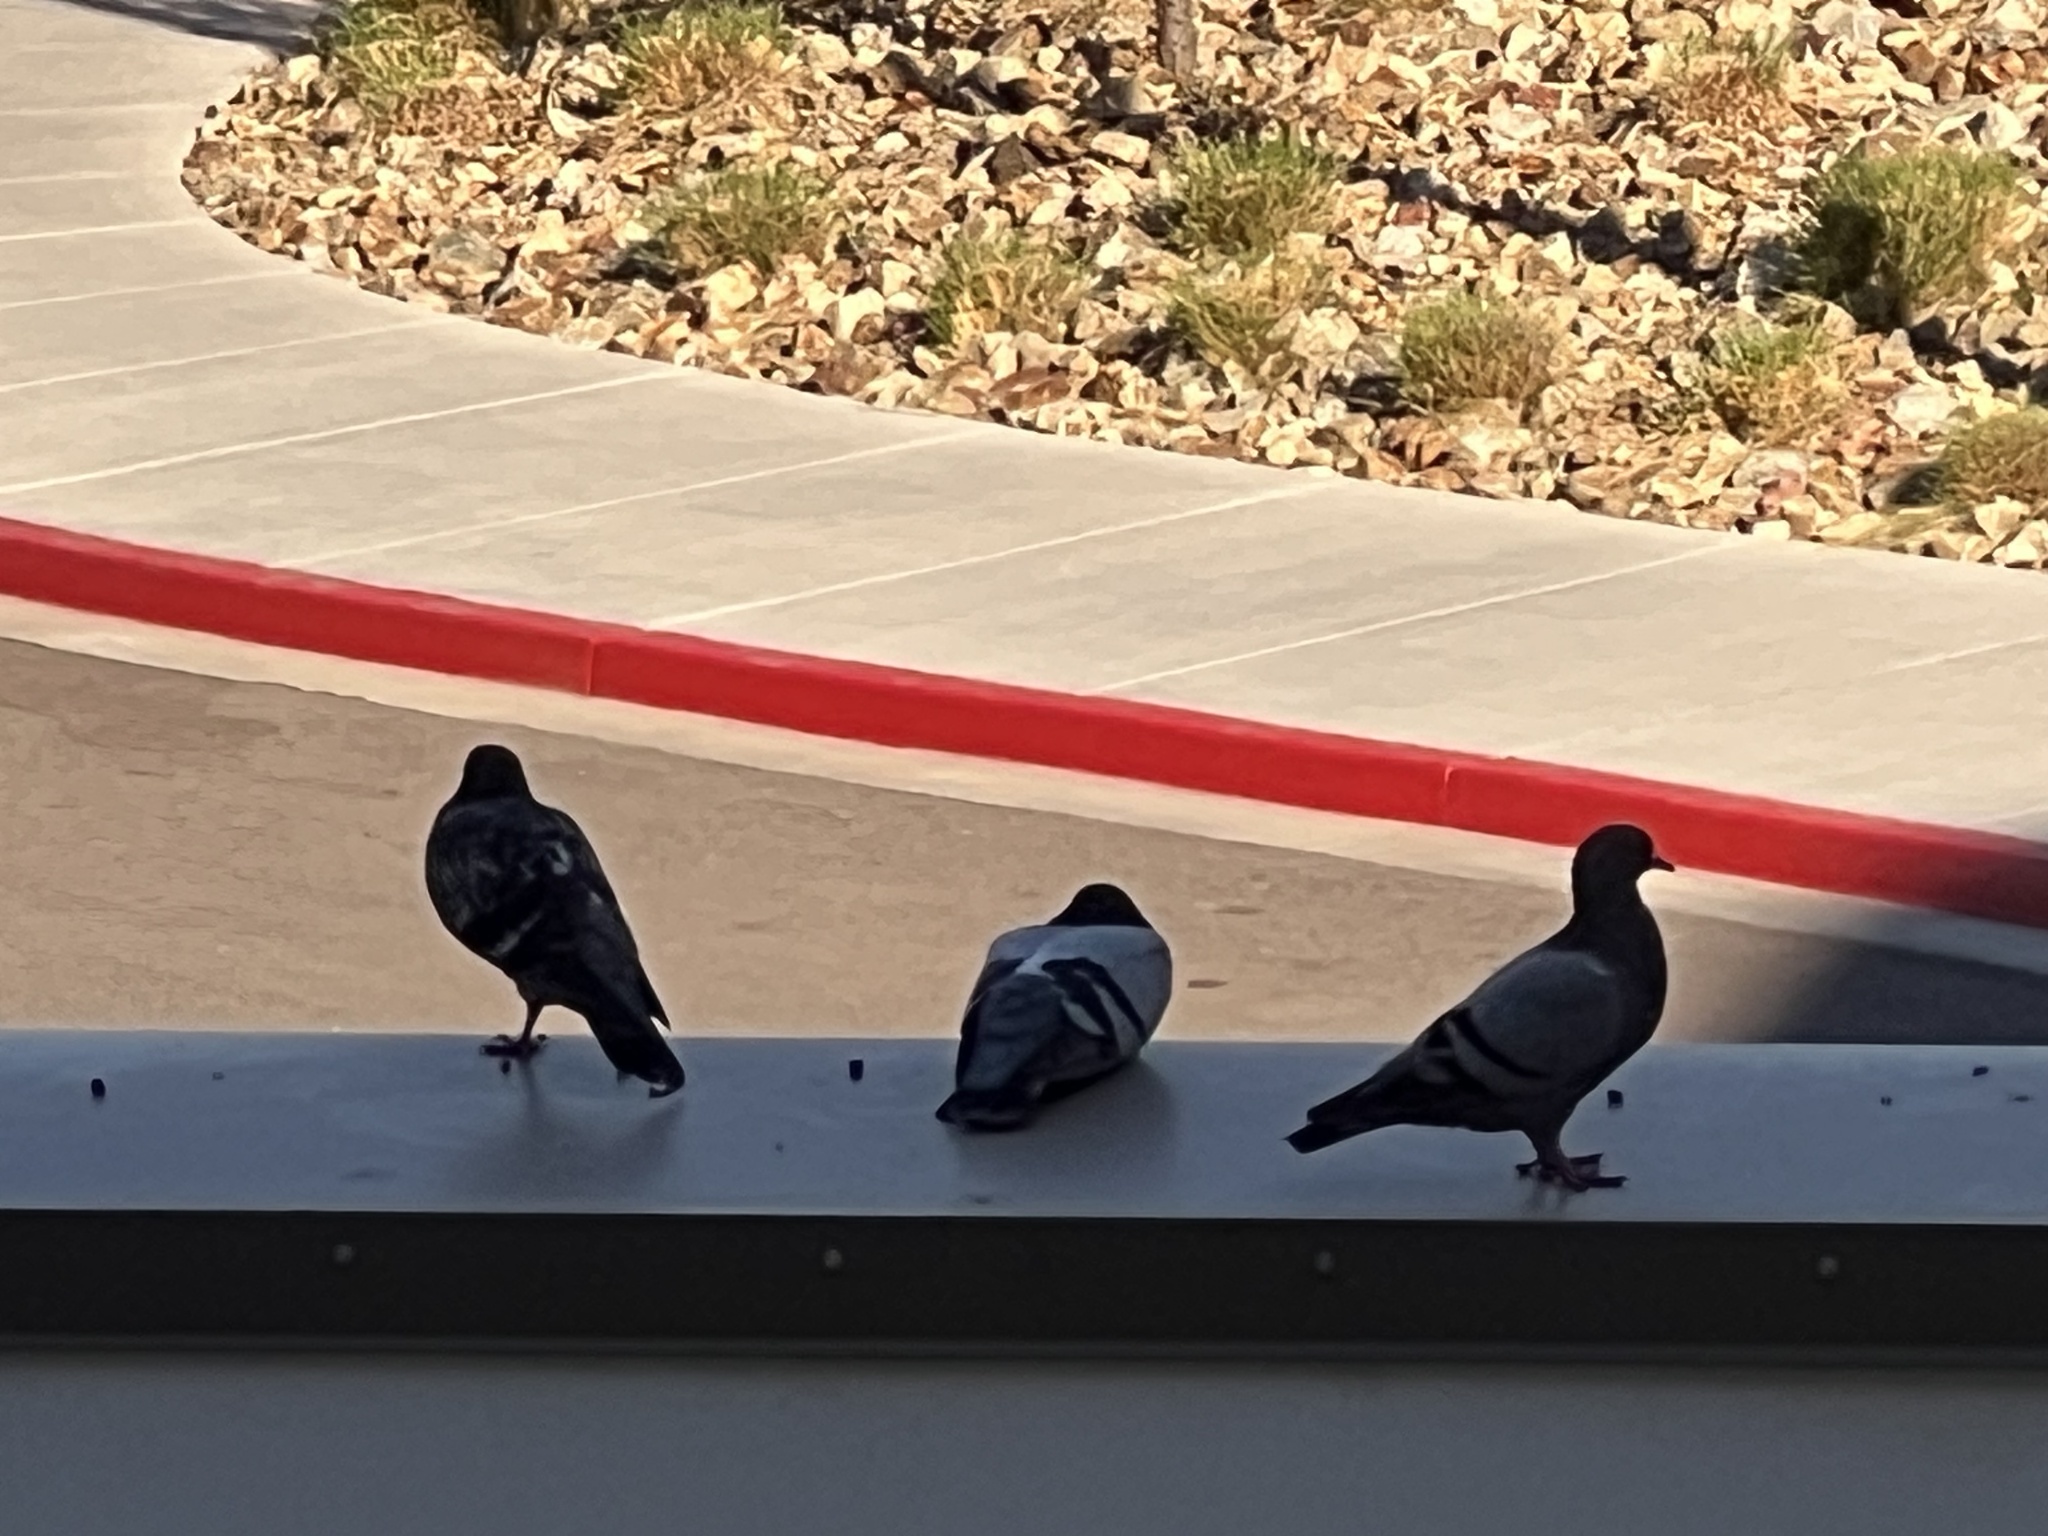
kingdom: Animalia
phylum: Chordata
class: Aves
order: Columbiformes
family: Columbidae
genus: Columba
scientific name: Columba livia
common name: Rock pigeon
